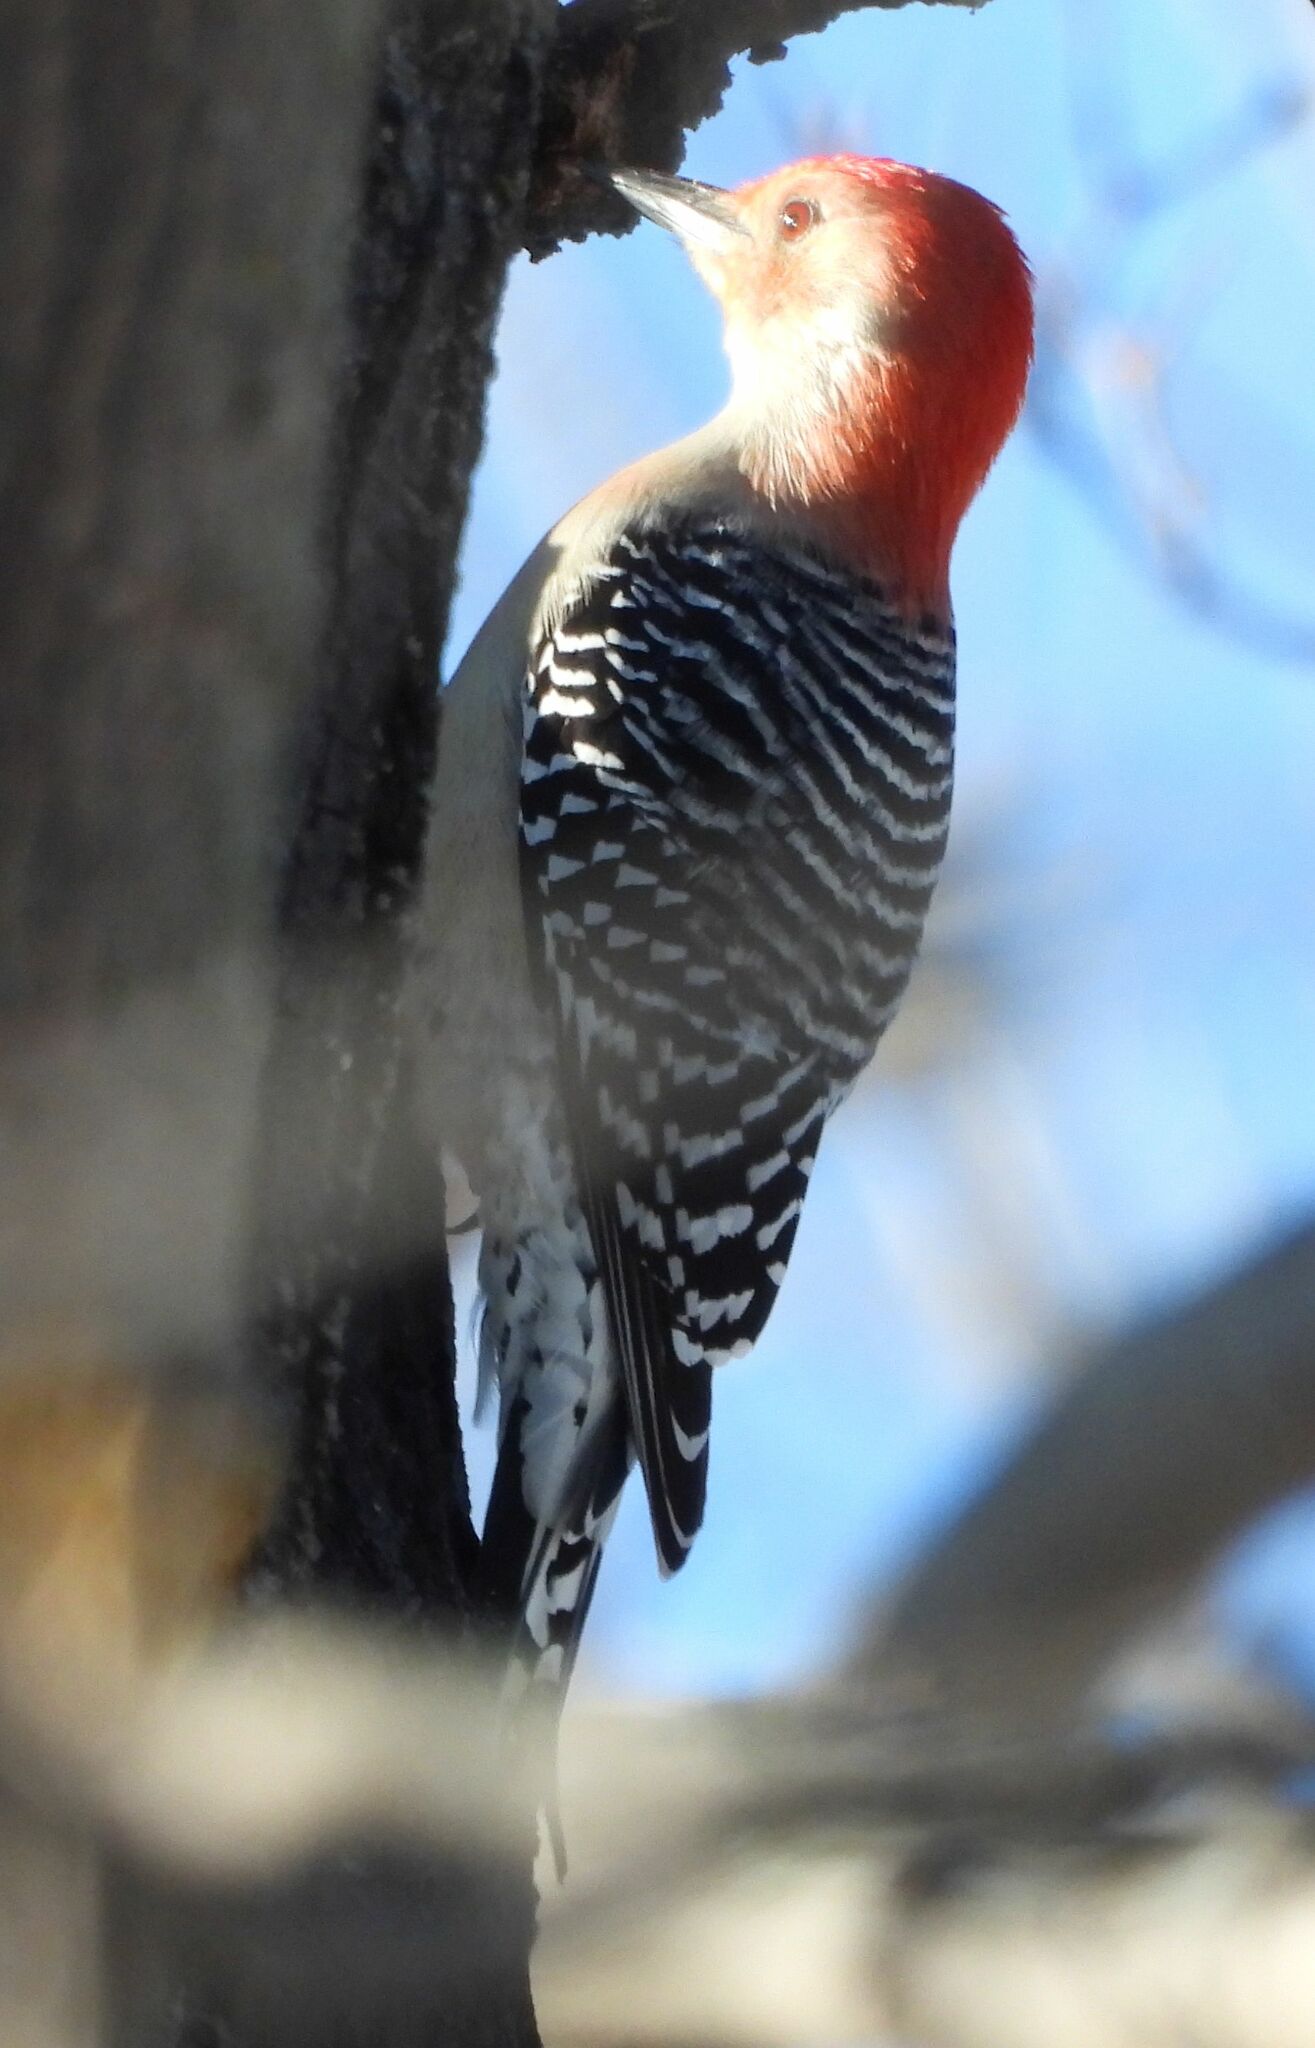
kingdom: Animalia
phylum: Chordata
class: Aves
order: Piciformes
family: Picidae
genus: Melanerpes
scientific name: Melanerpes carolinus
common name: Red-bellied woodpecker
